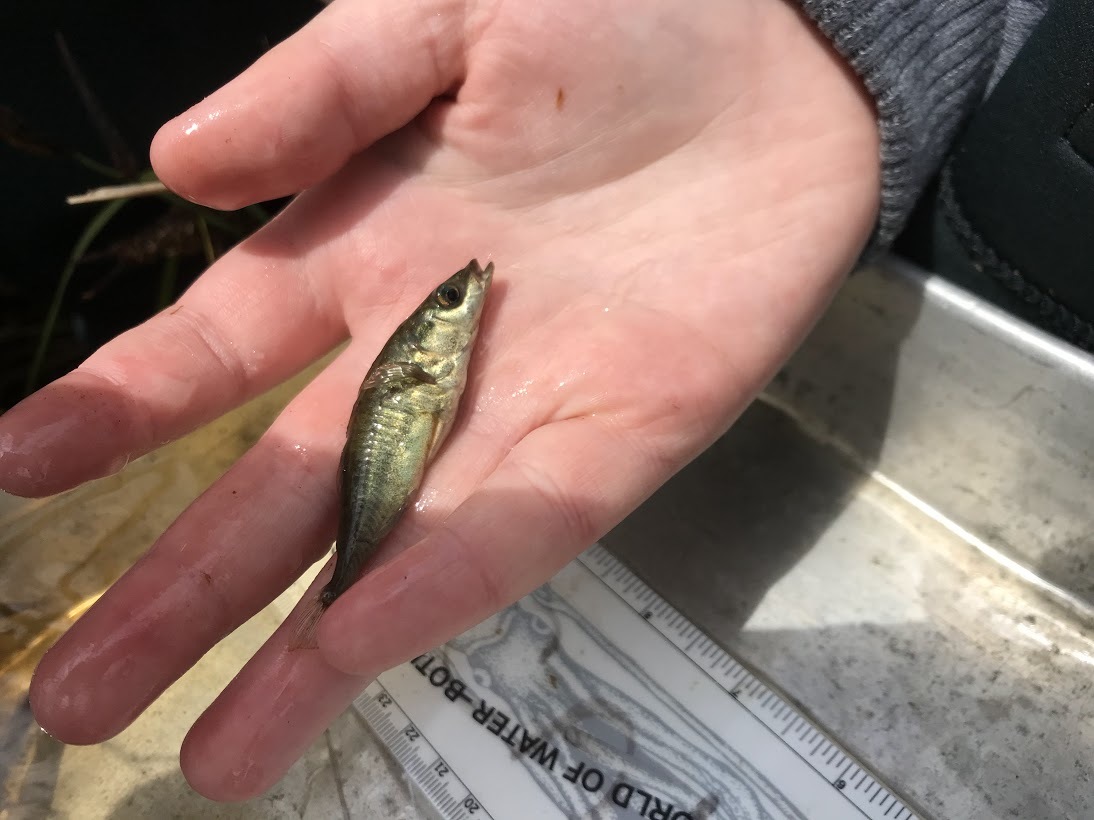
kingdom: Animalia
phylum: Chordata
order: Gasterosteiformes
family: Gasterosteidae
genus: Gasterosteus
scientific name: Gasterosteus aculeatus
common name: Three-spined stickleback
